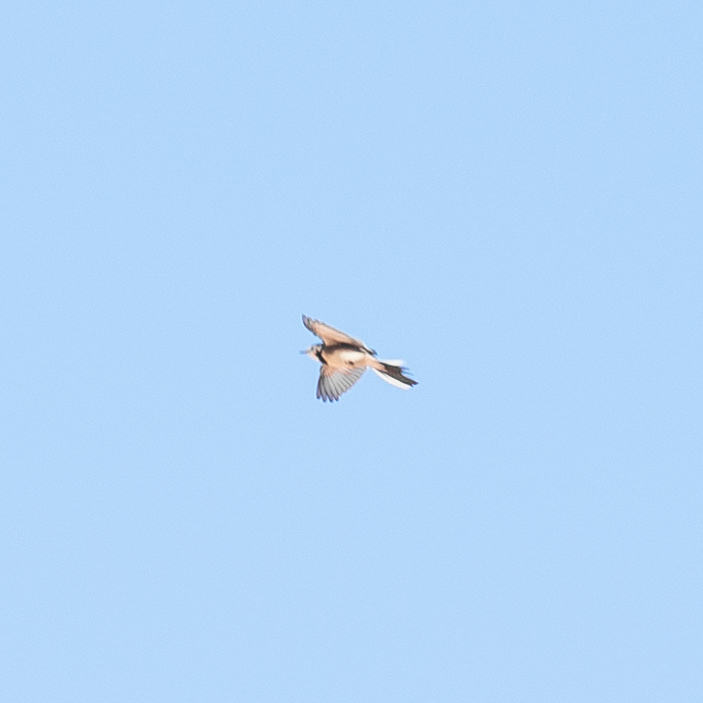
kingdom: Animalia
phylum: Chordata
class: Aves
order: Passeriformes
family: Motacillidae
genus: Motacilla
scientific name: Motacilla alba
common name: White wagtail
